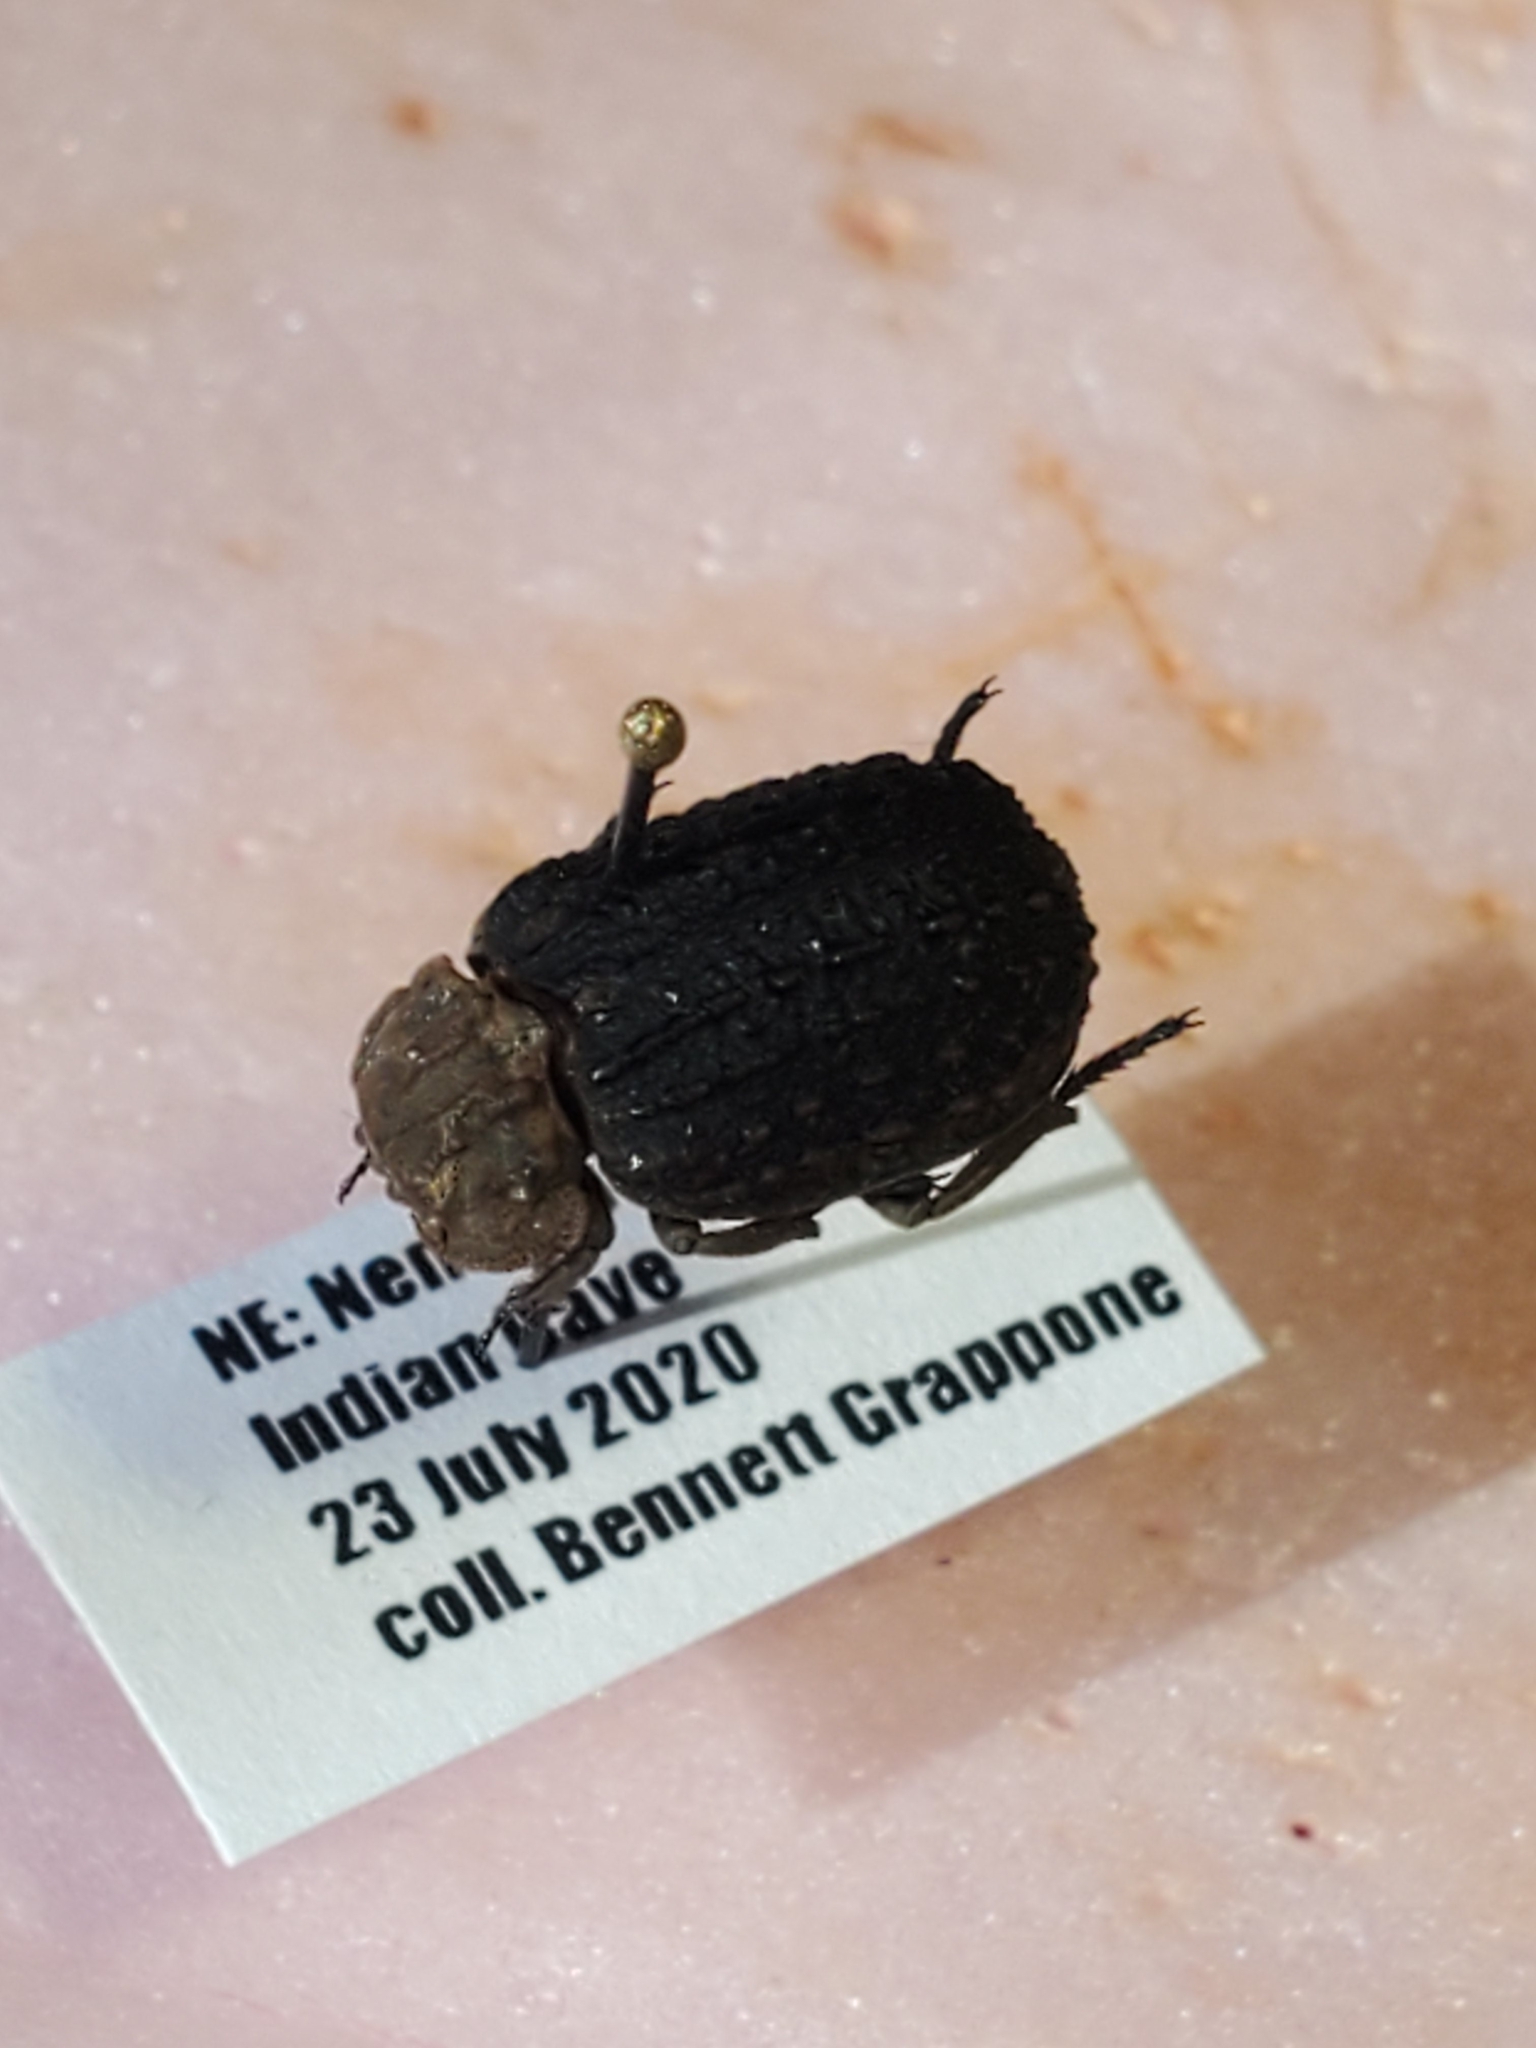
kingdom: Animalia
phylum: Arthropoda
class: Insecta
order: Coleoptera
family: Trogidae
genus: Omorgus
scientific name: Omorgus asper
